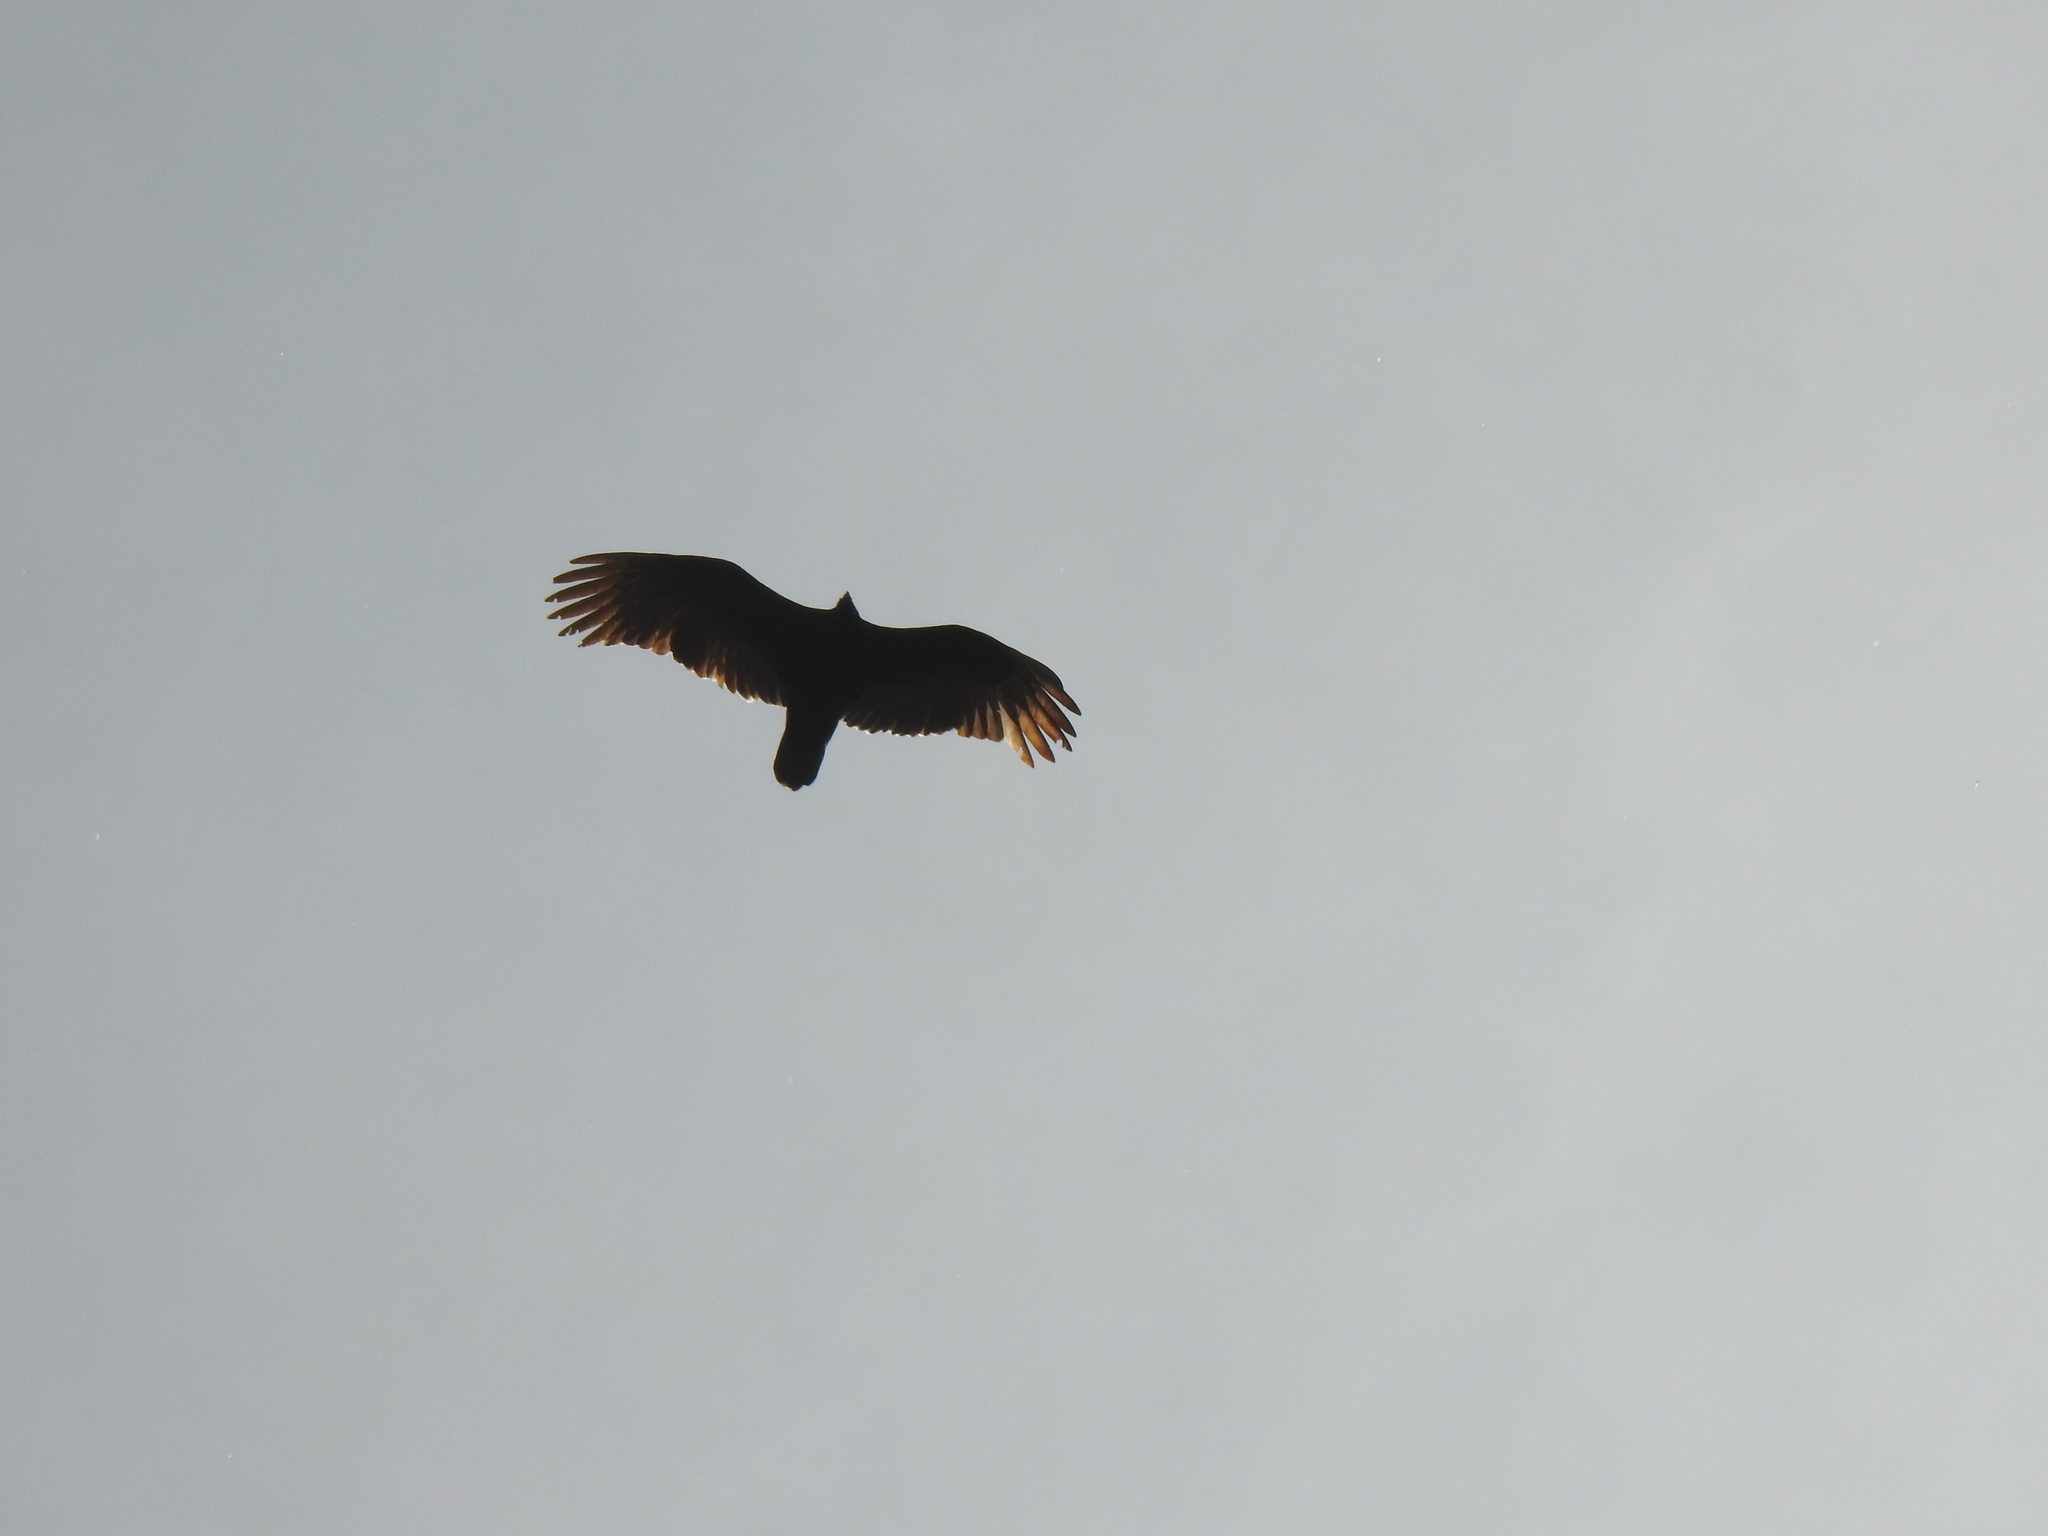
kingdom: Animalia
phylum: Chordata
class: Aves
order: Accipitriformes
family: Cathartidae
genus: Cathartes
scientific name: Cathartes aura
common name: Turkey vulture
